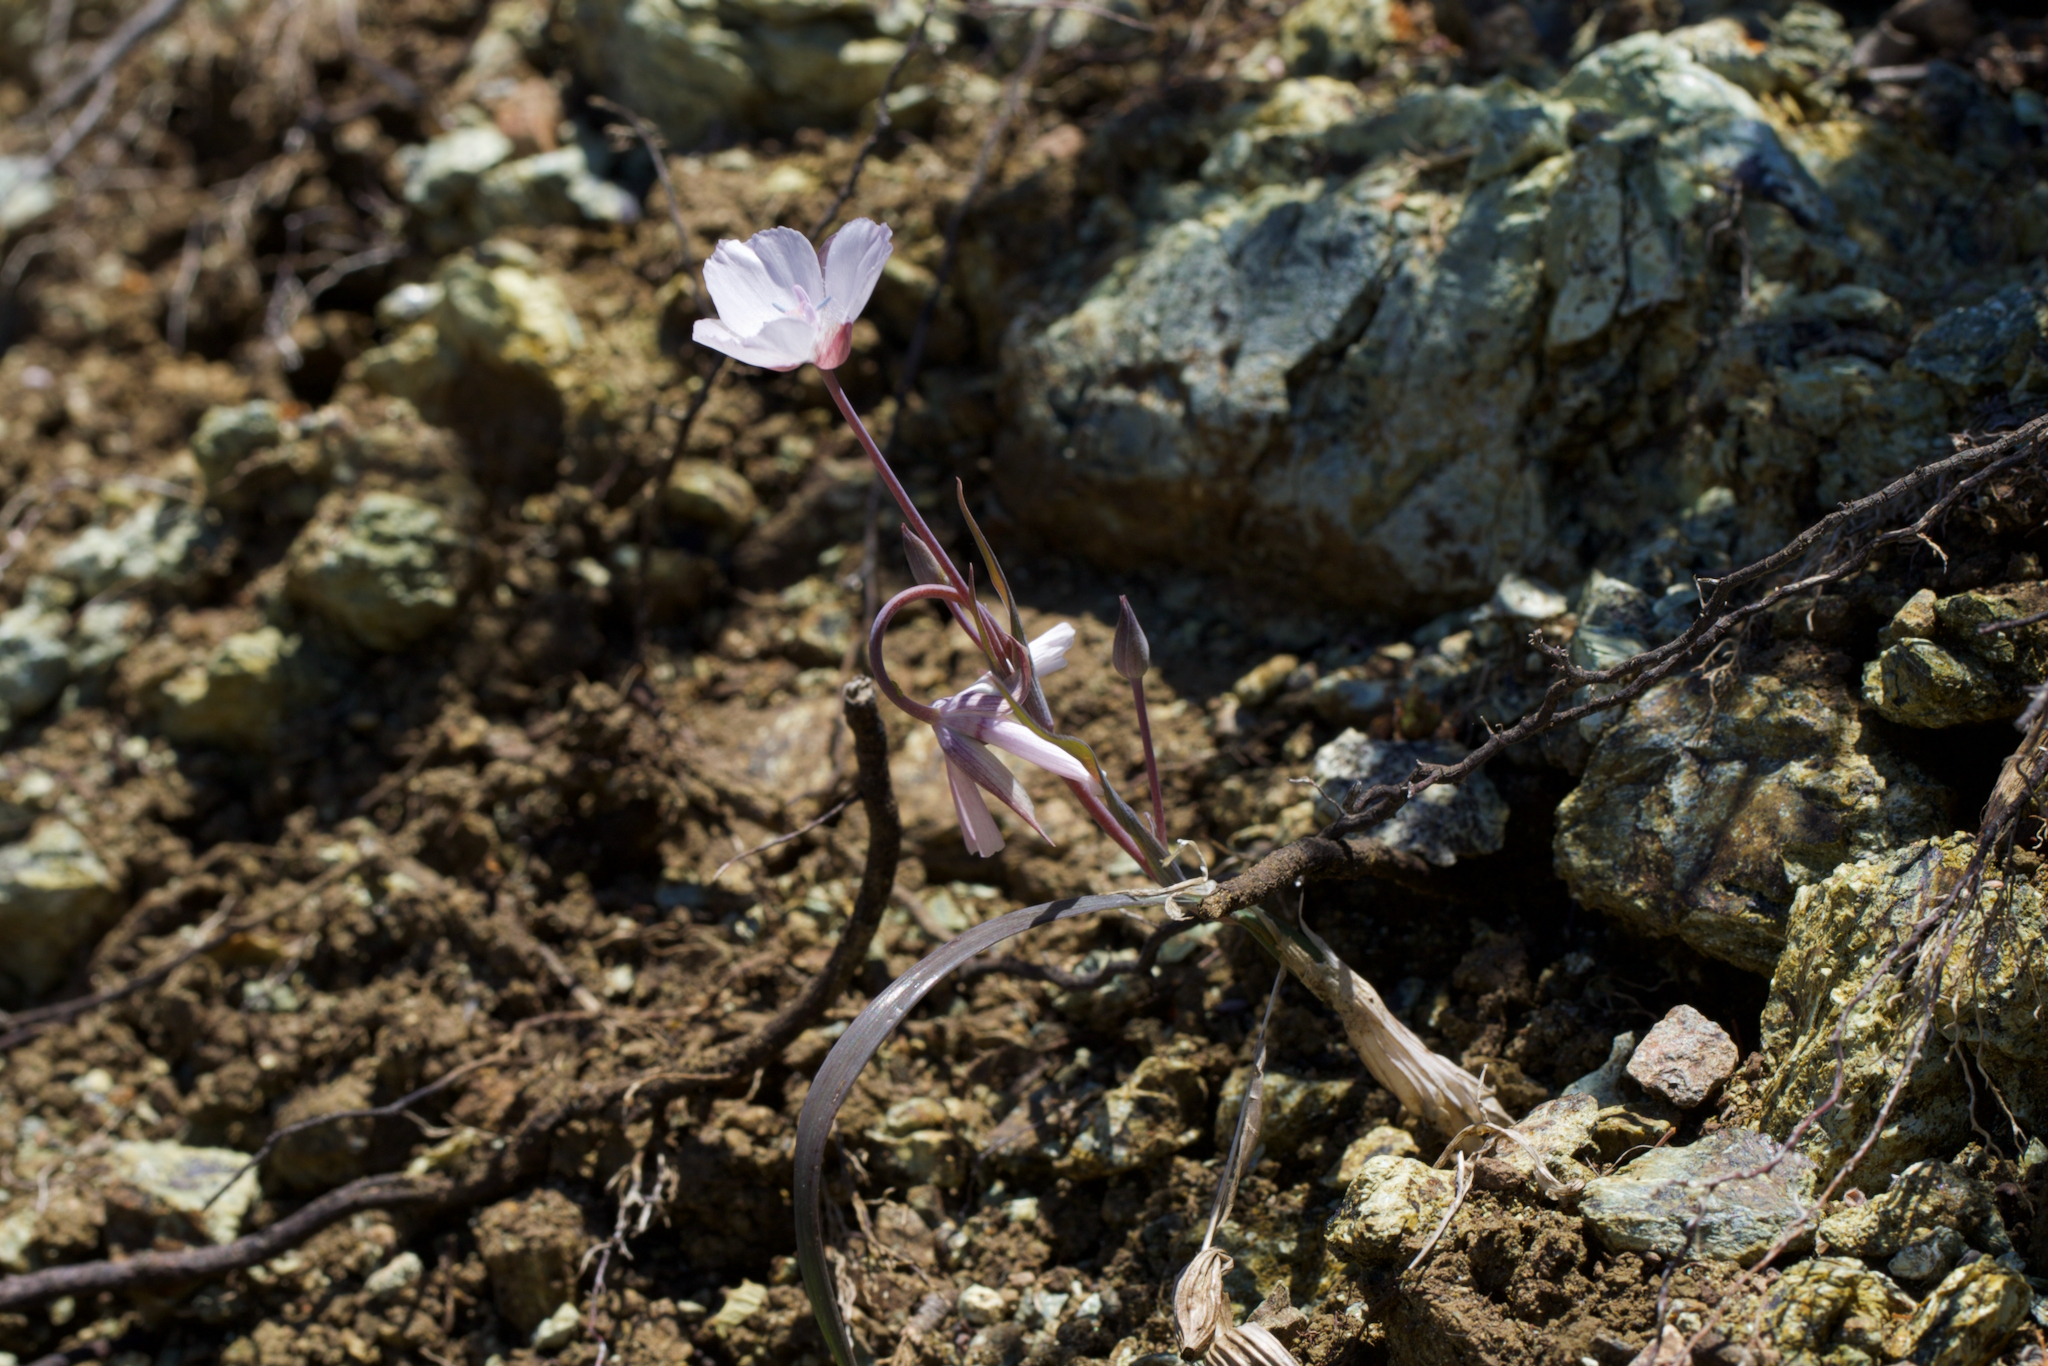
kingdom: Plantae
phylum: Tracheophyta
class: Liliopsida
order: Liliales
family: Liliaceae
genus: Calochortus
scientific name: Calochortus umbellatus
